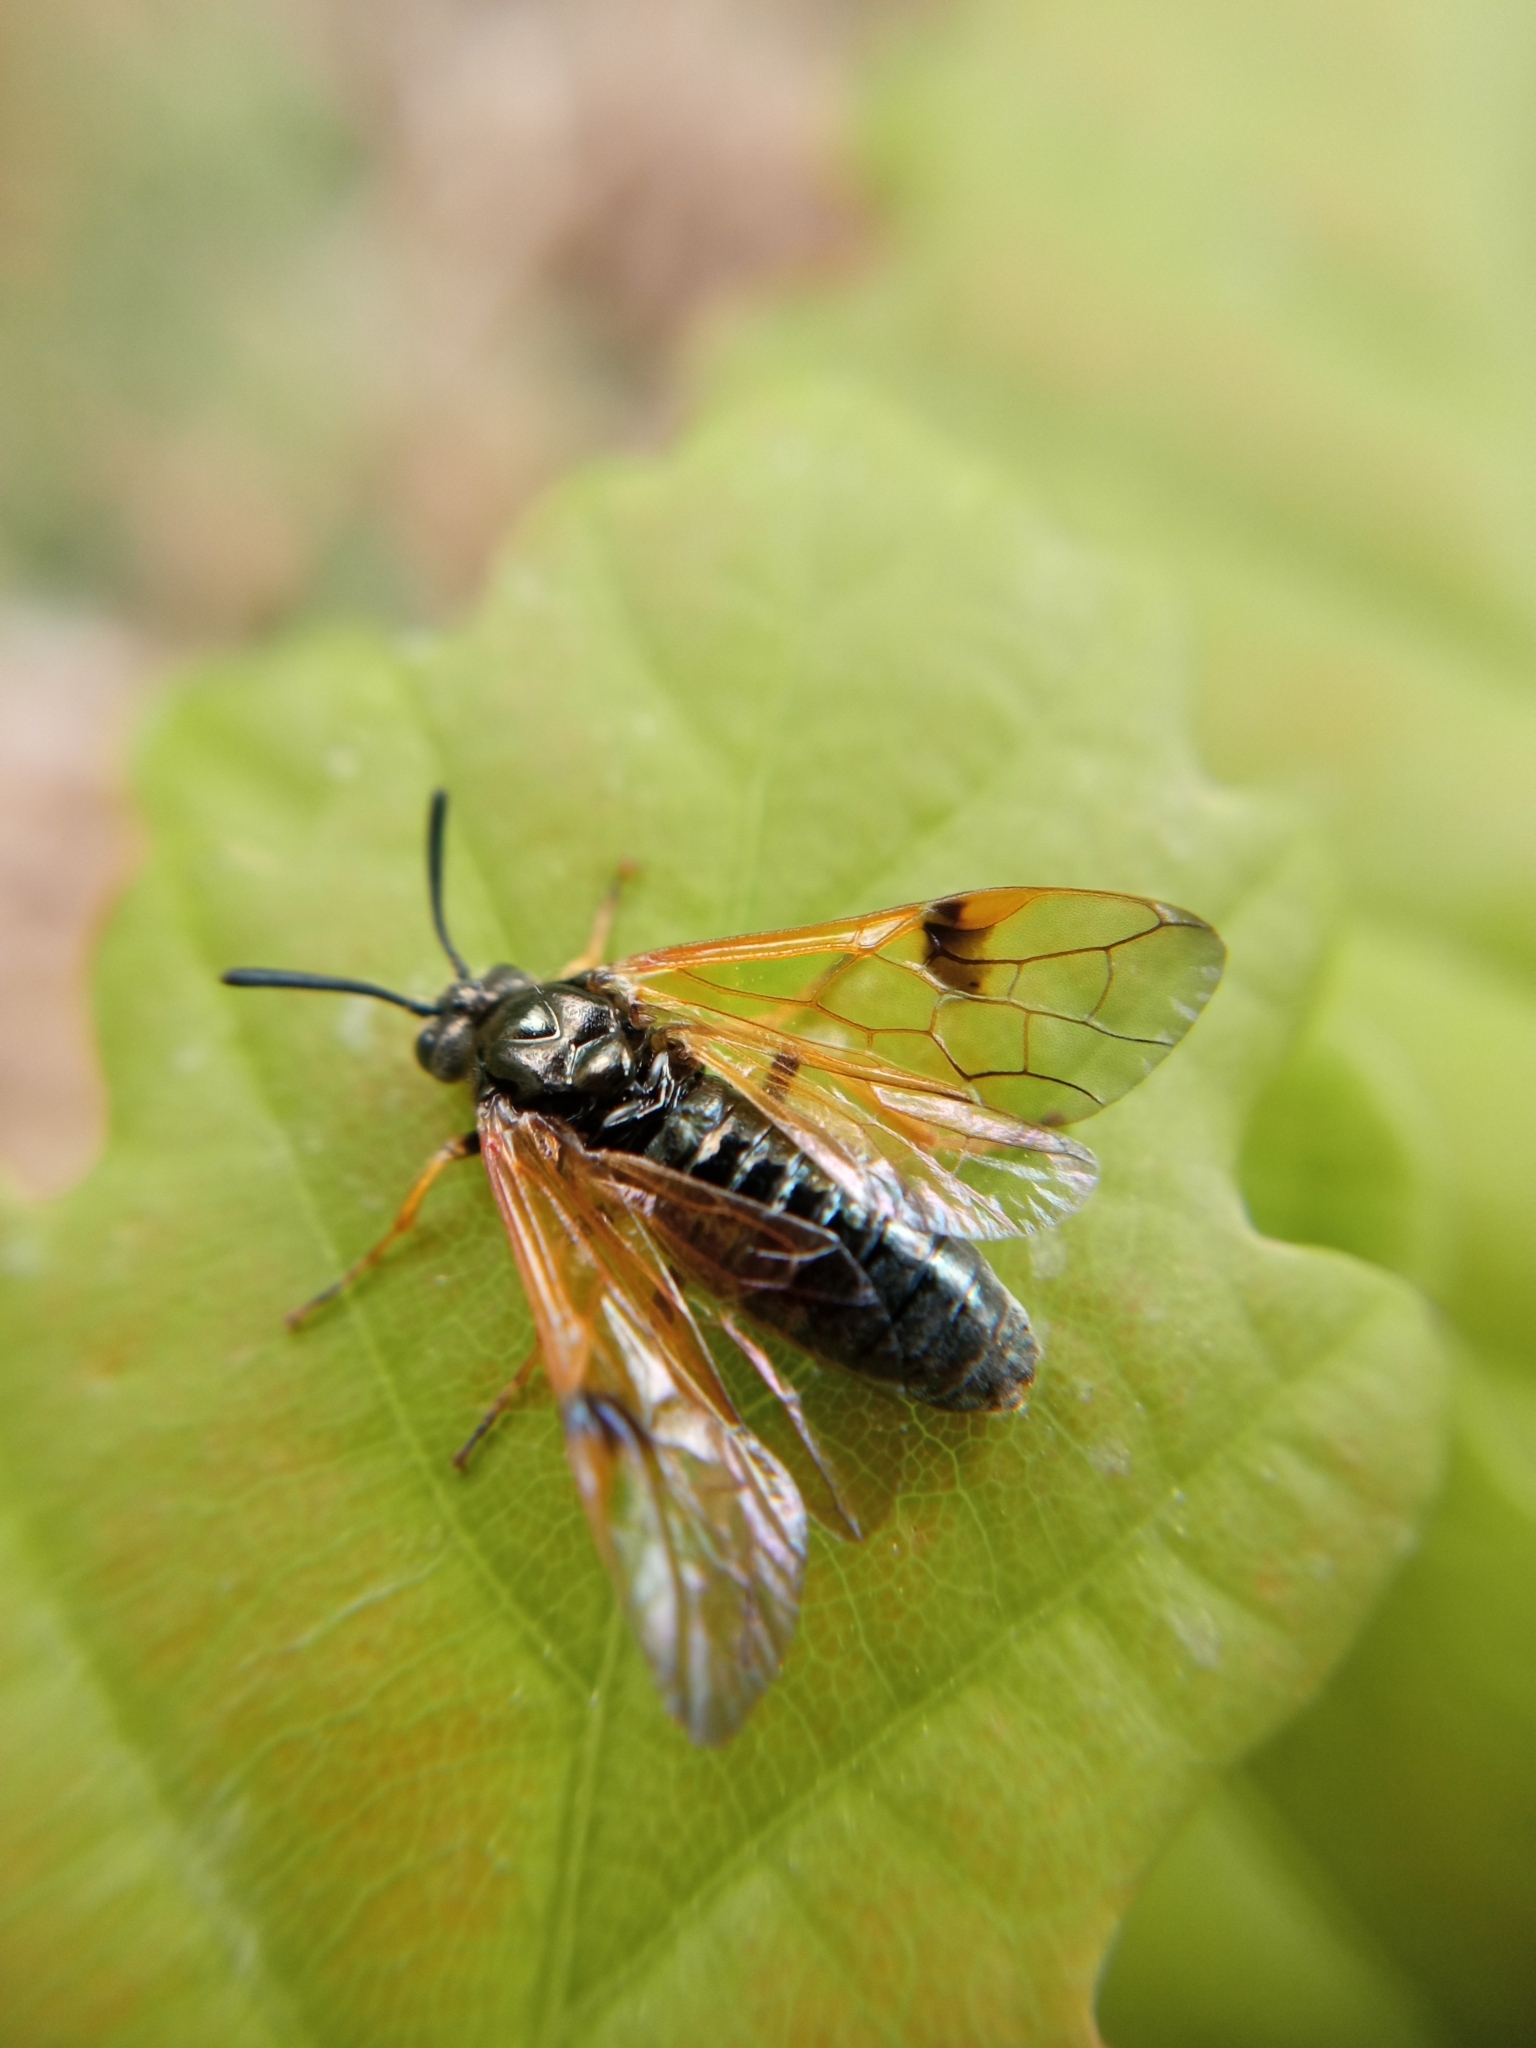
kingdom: Animalia
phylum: Arthropoda
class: Insecta
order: Hymenoptera
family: Argidae
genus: Arge
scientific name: Arge ustulata
